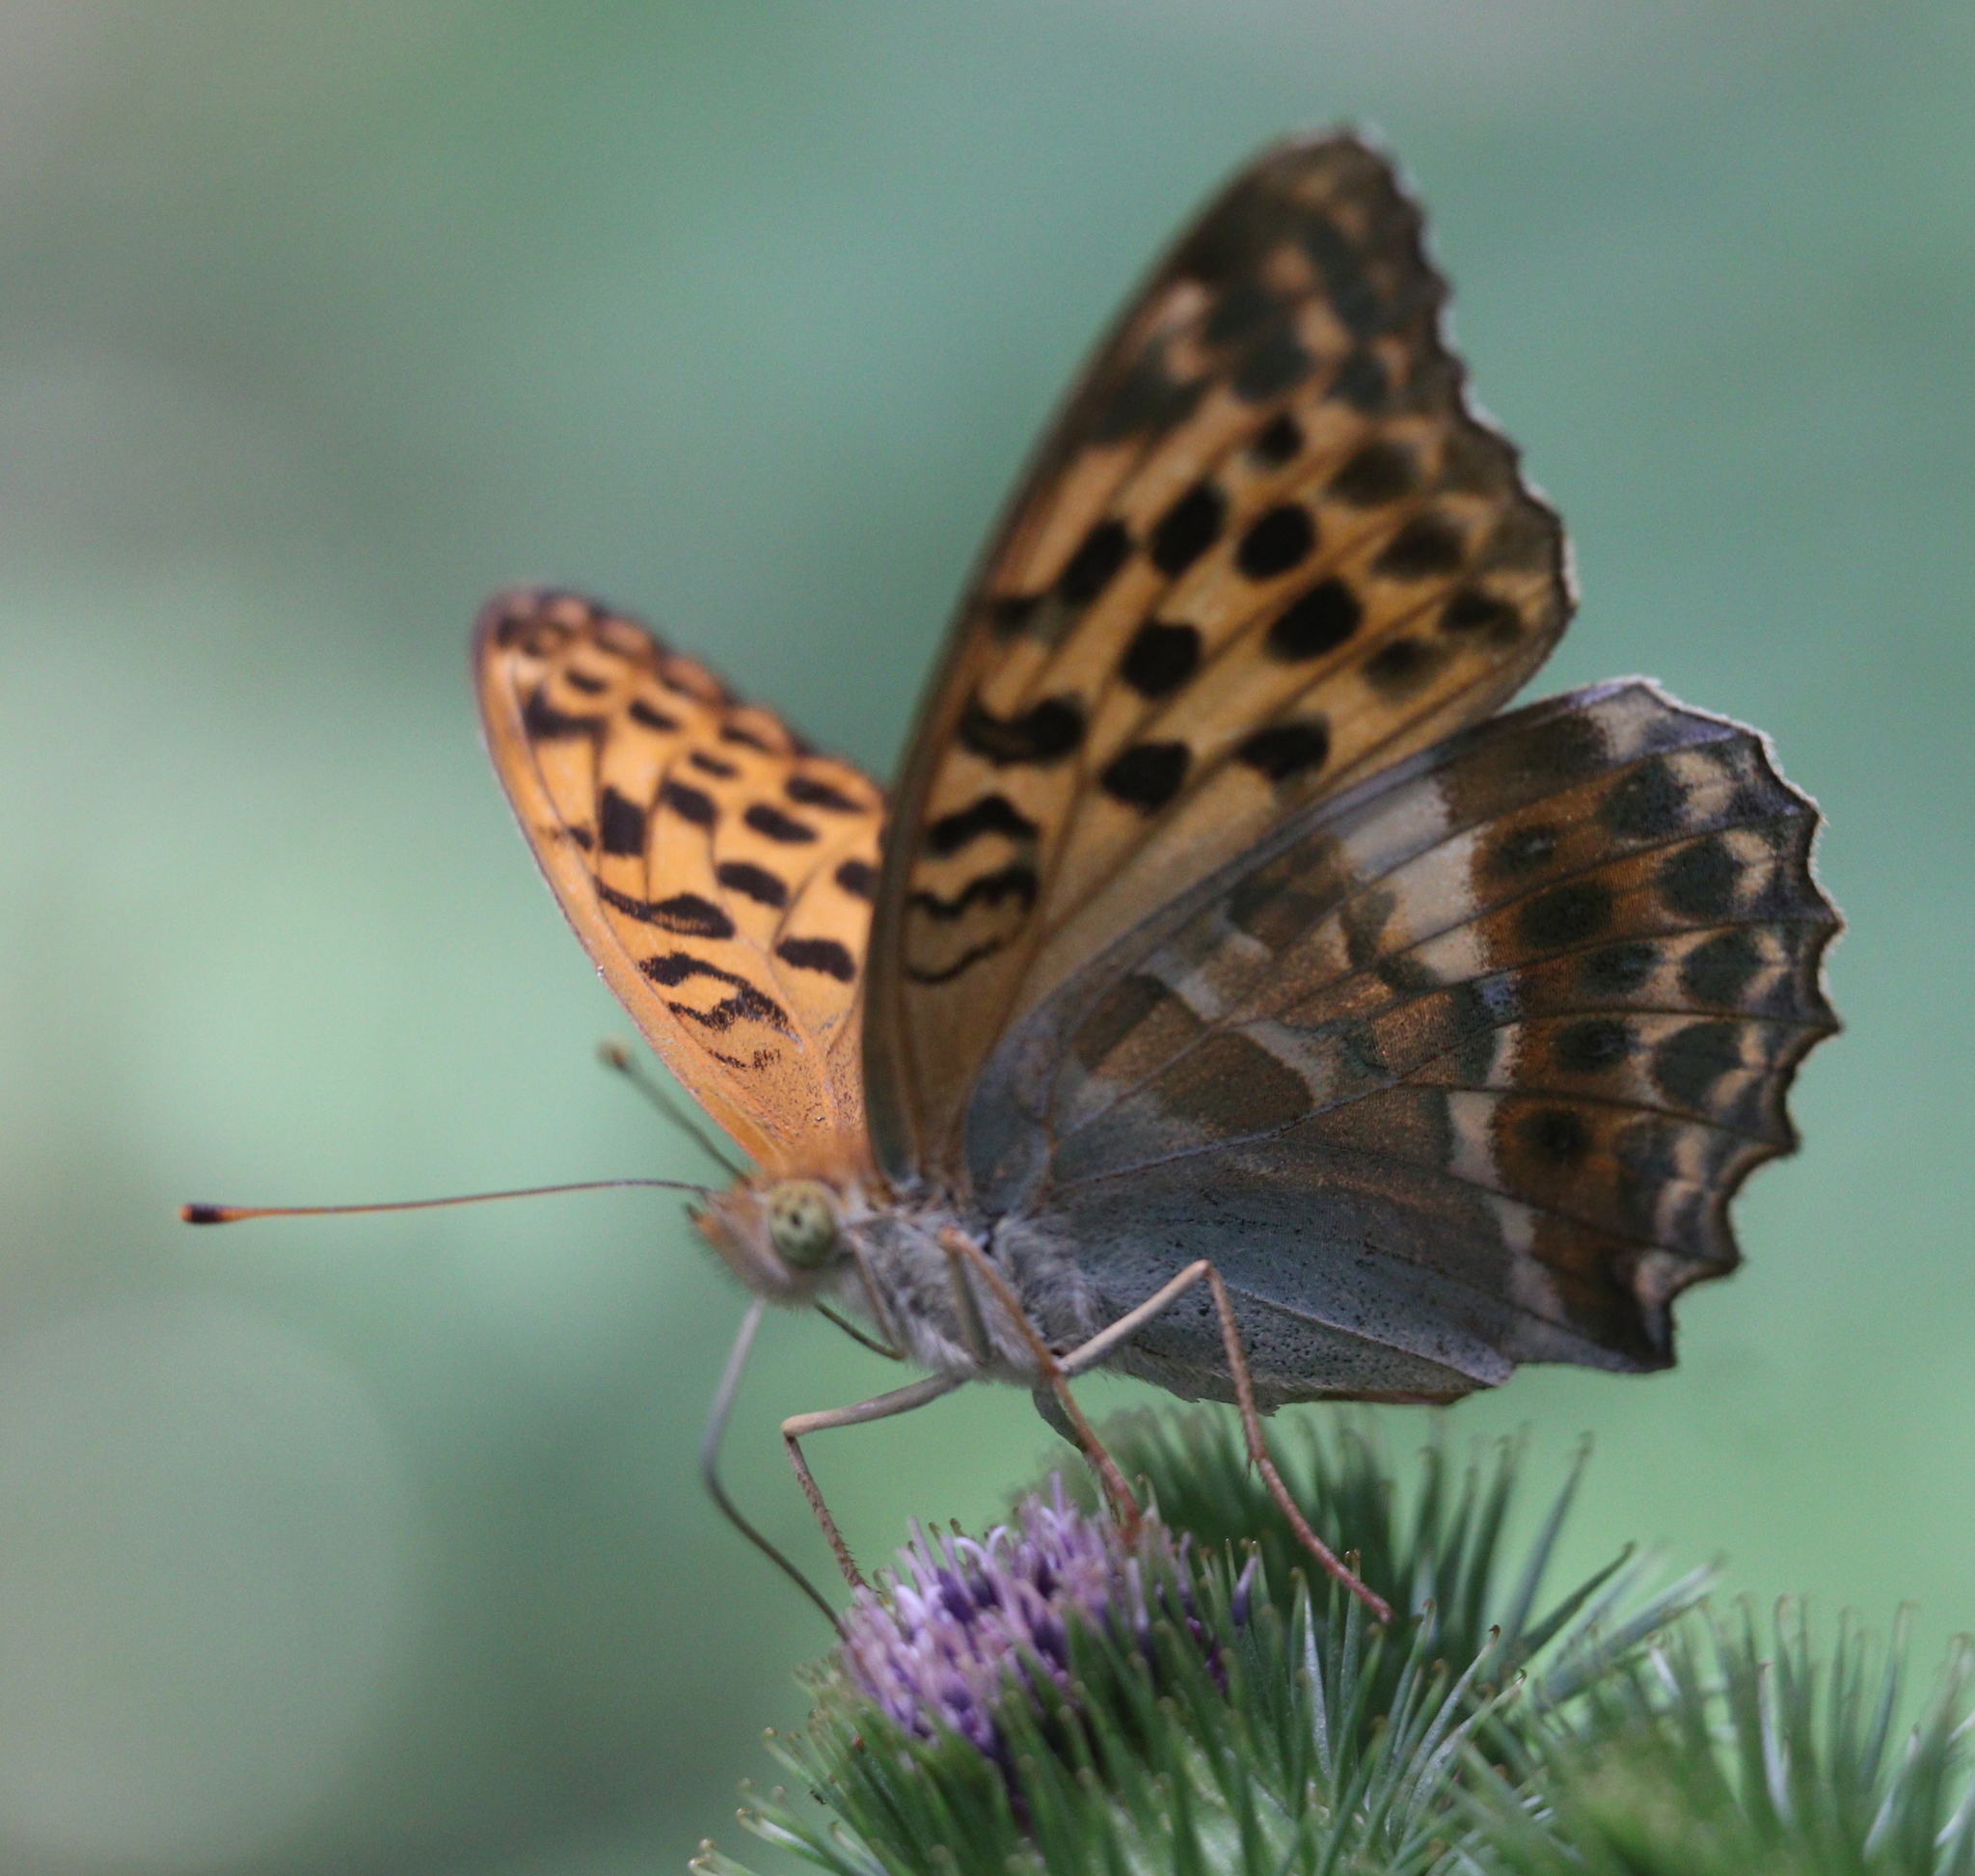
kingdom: Animalia
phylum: Arthropoda
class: Insecta
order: Lepidoptera
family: Nymphalidae
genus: Argynnis
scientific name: Argynnis paphia
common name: Silver-washed fritillary
